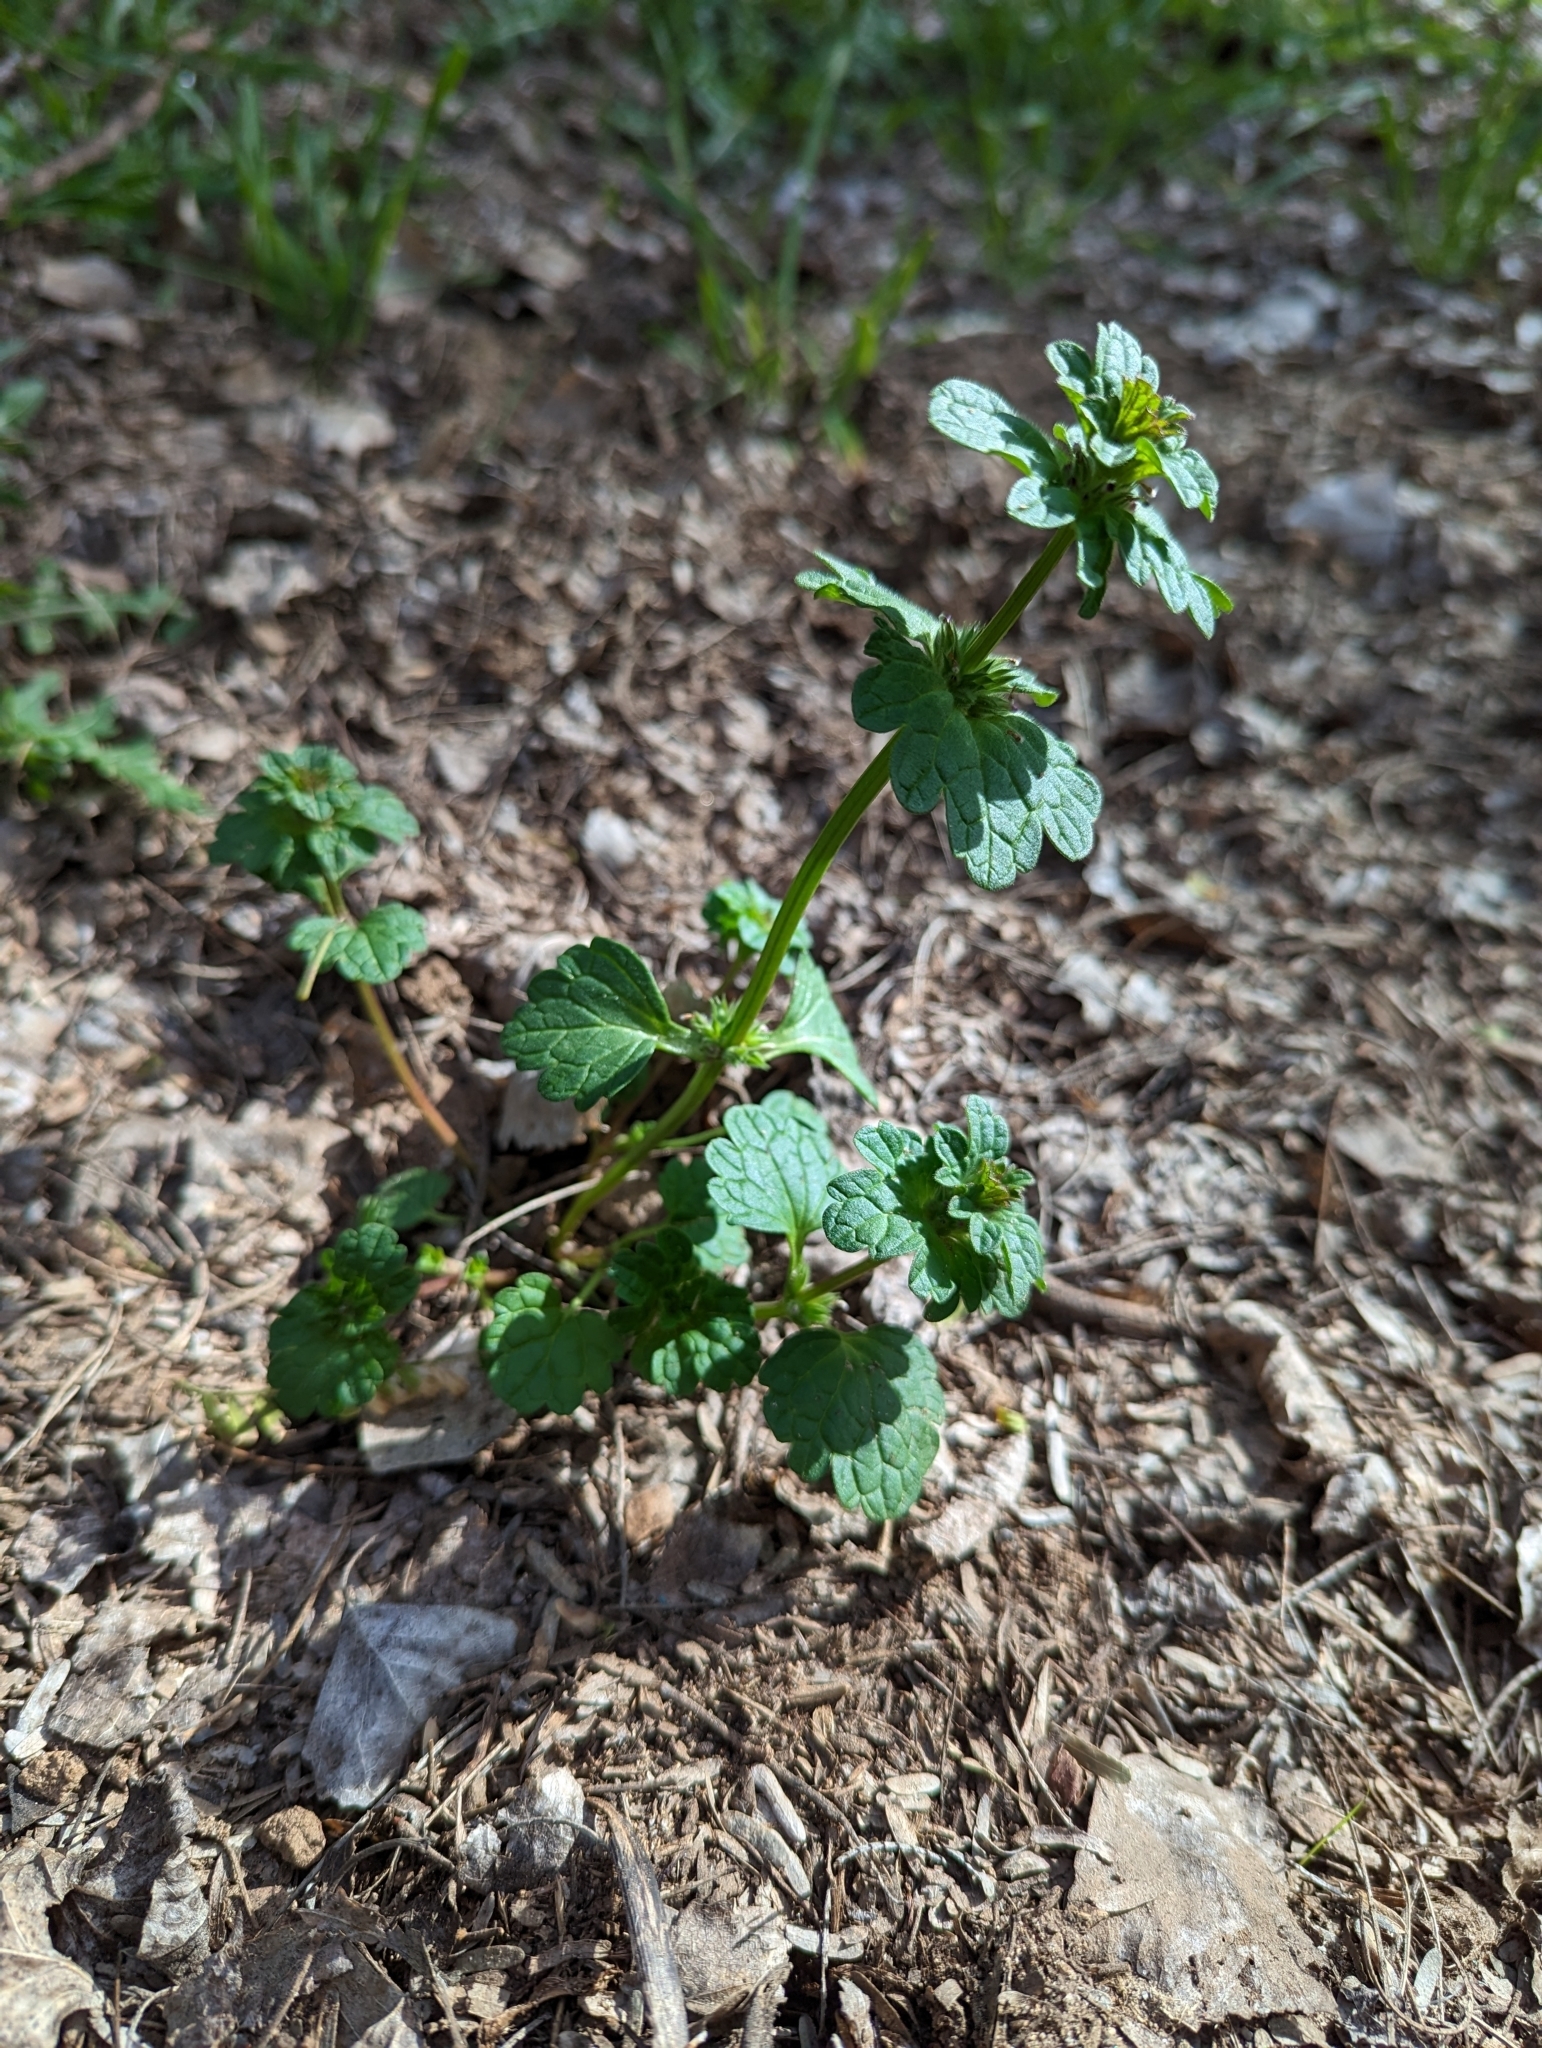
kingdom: Plantae
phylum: Tracheophyta
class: Magnoliopsida
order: Lamiales
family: Lamiaceae
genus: Lamium
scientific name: Lamium amplexicaule
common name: Henbit dead-nettle
